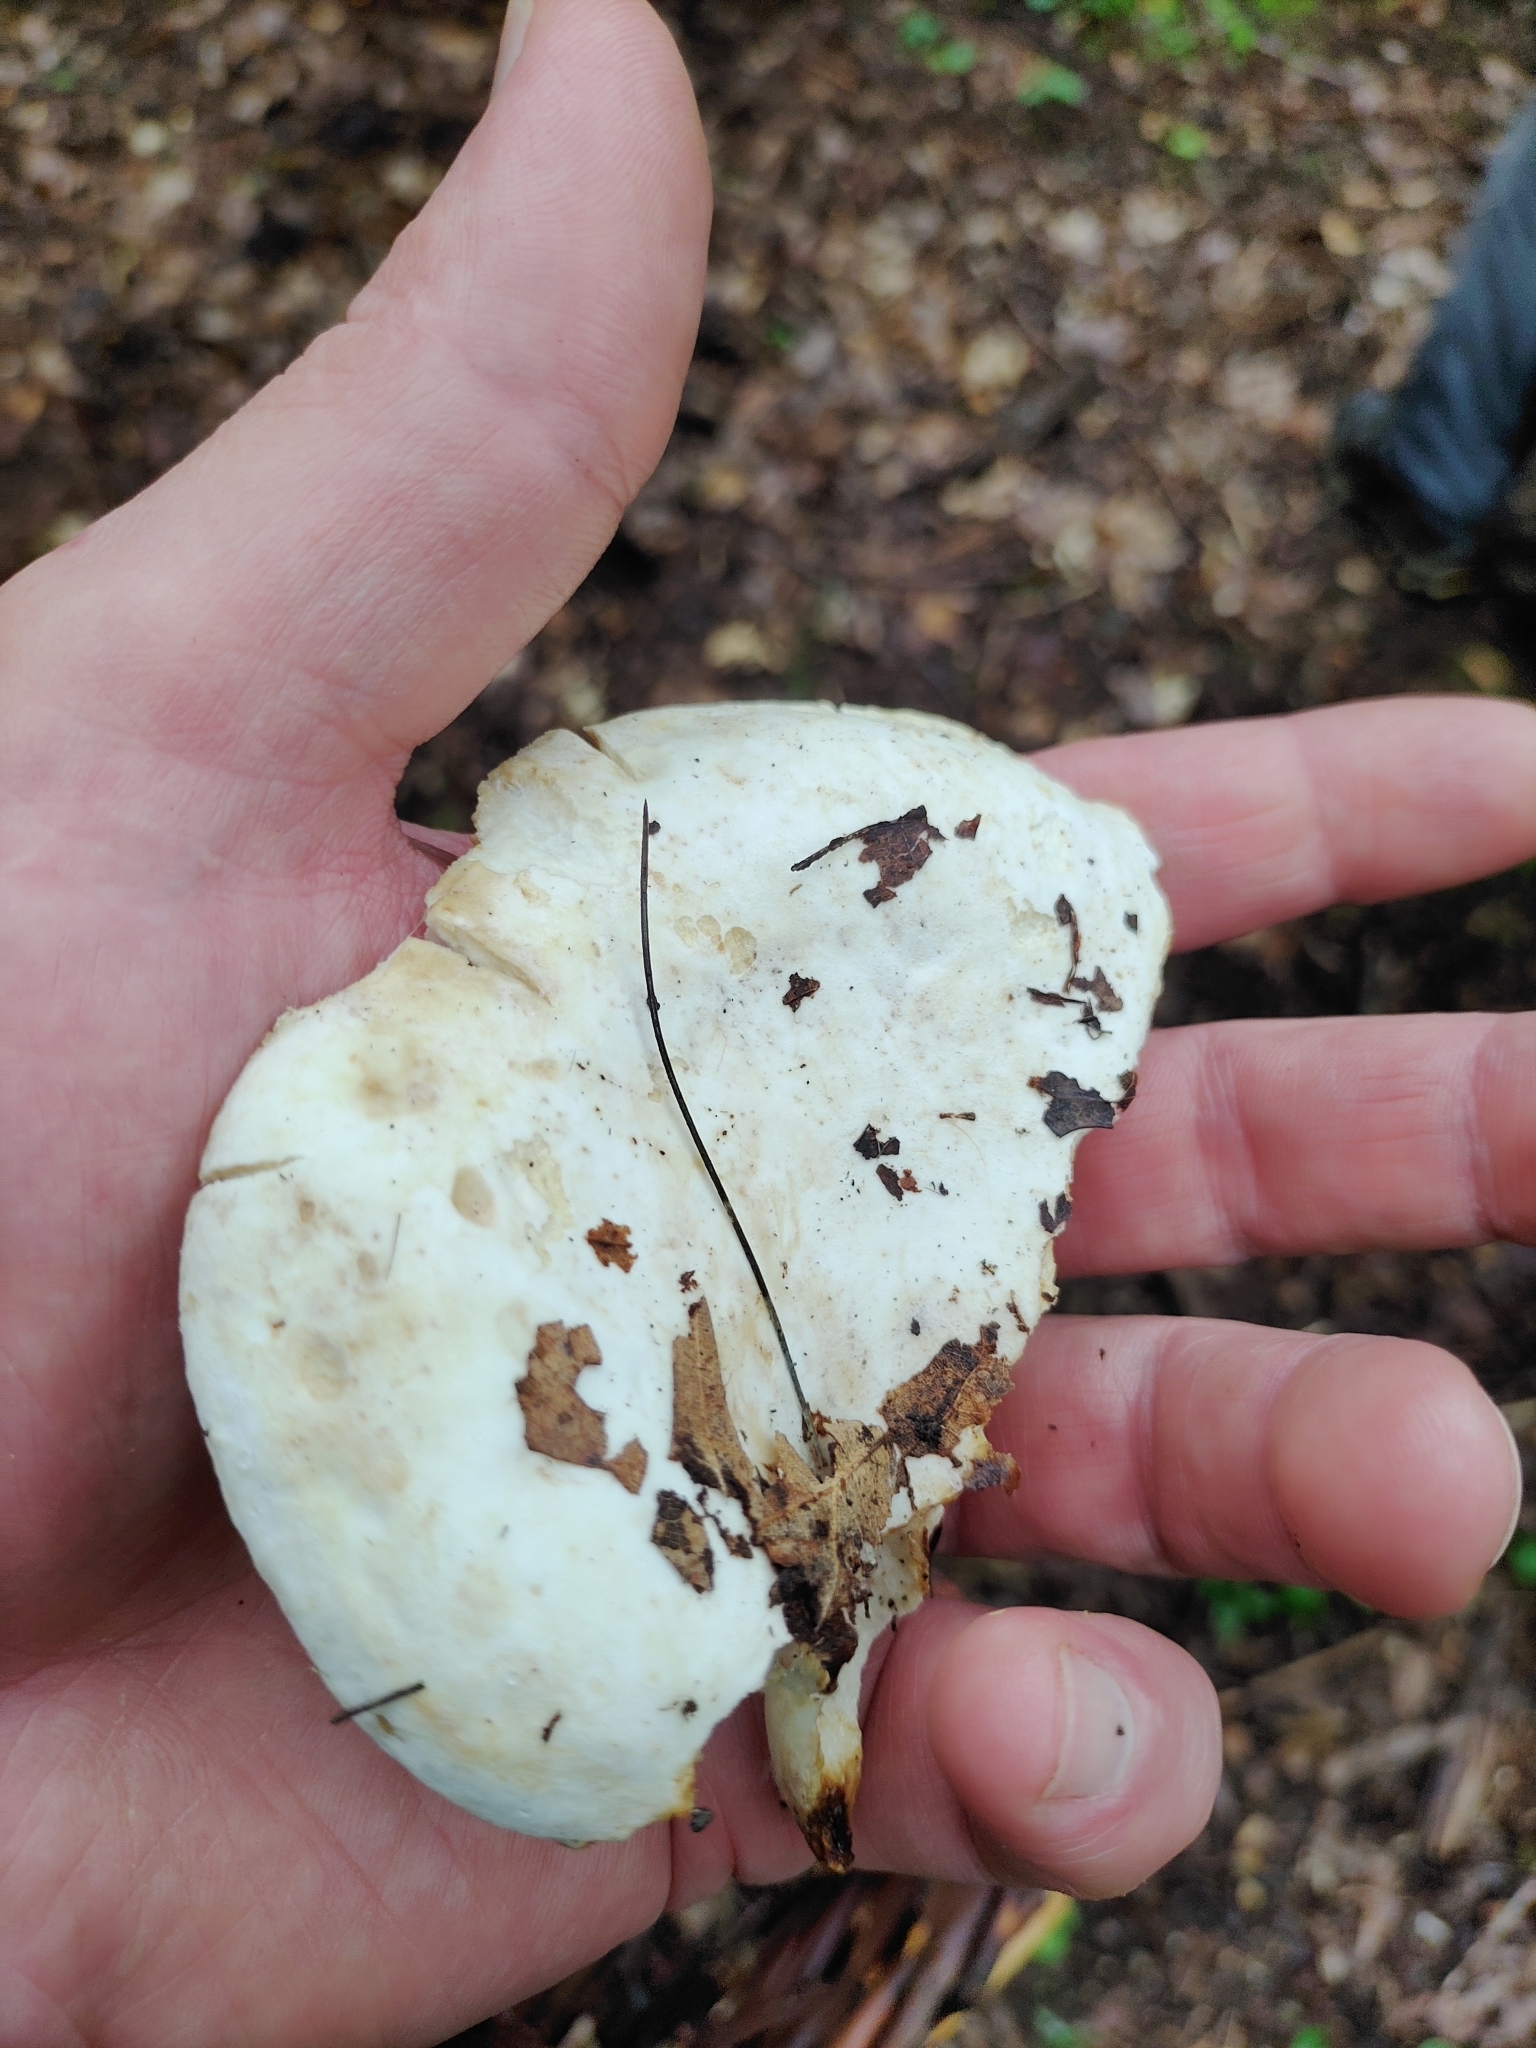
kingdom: Fungi
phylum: Basidiomycota
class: Agaricomycetes
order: Russulales
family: Russulaceae
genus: Lactifluus
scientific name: Lactifluus subvellereus
